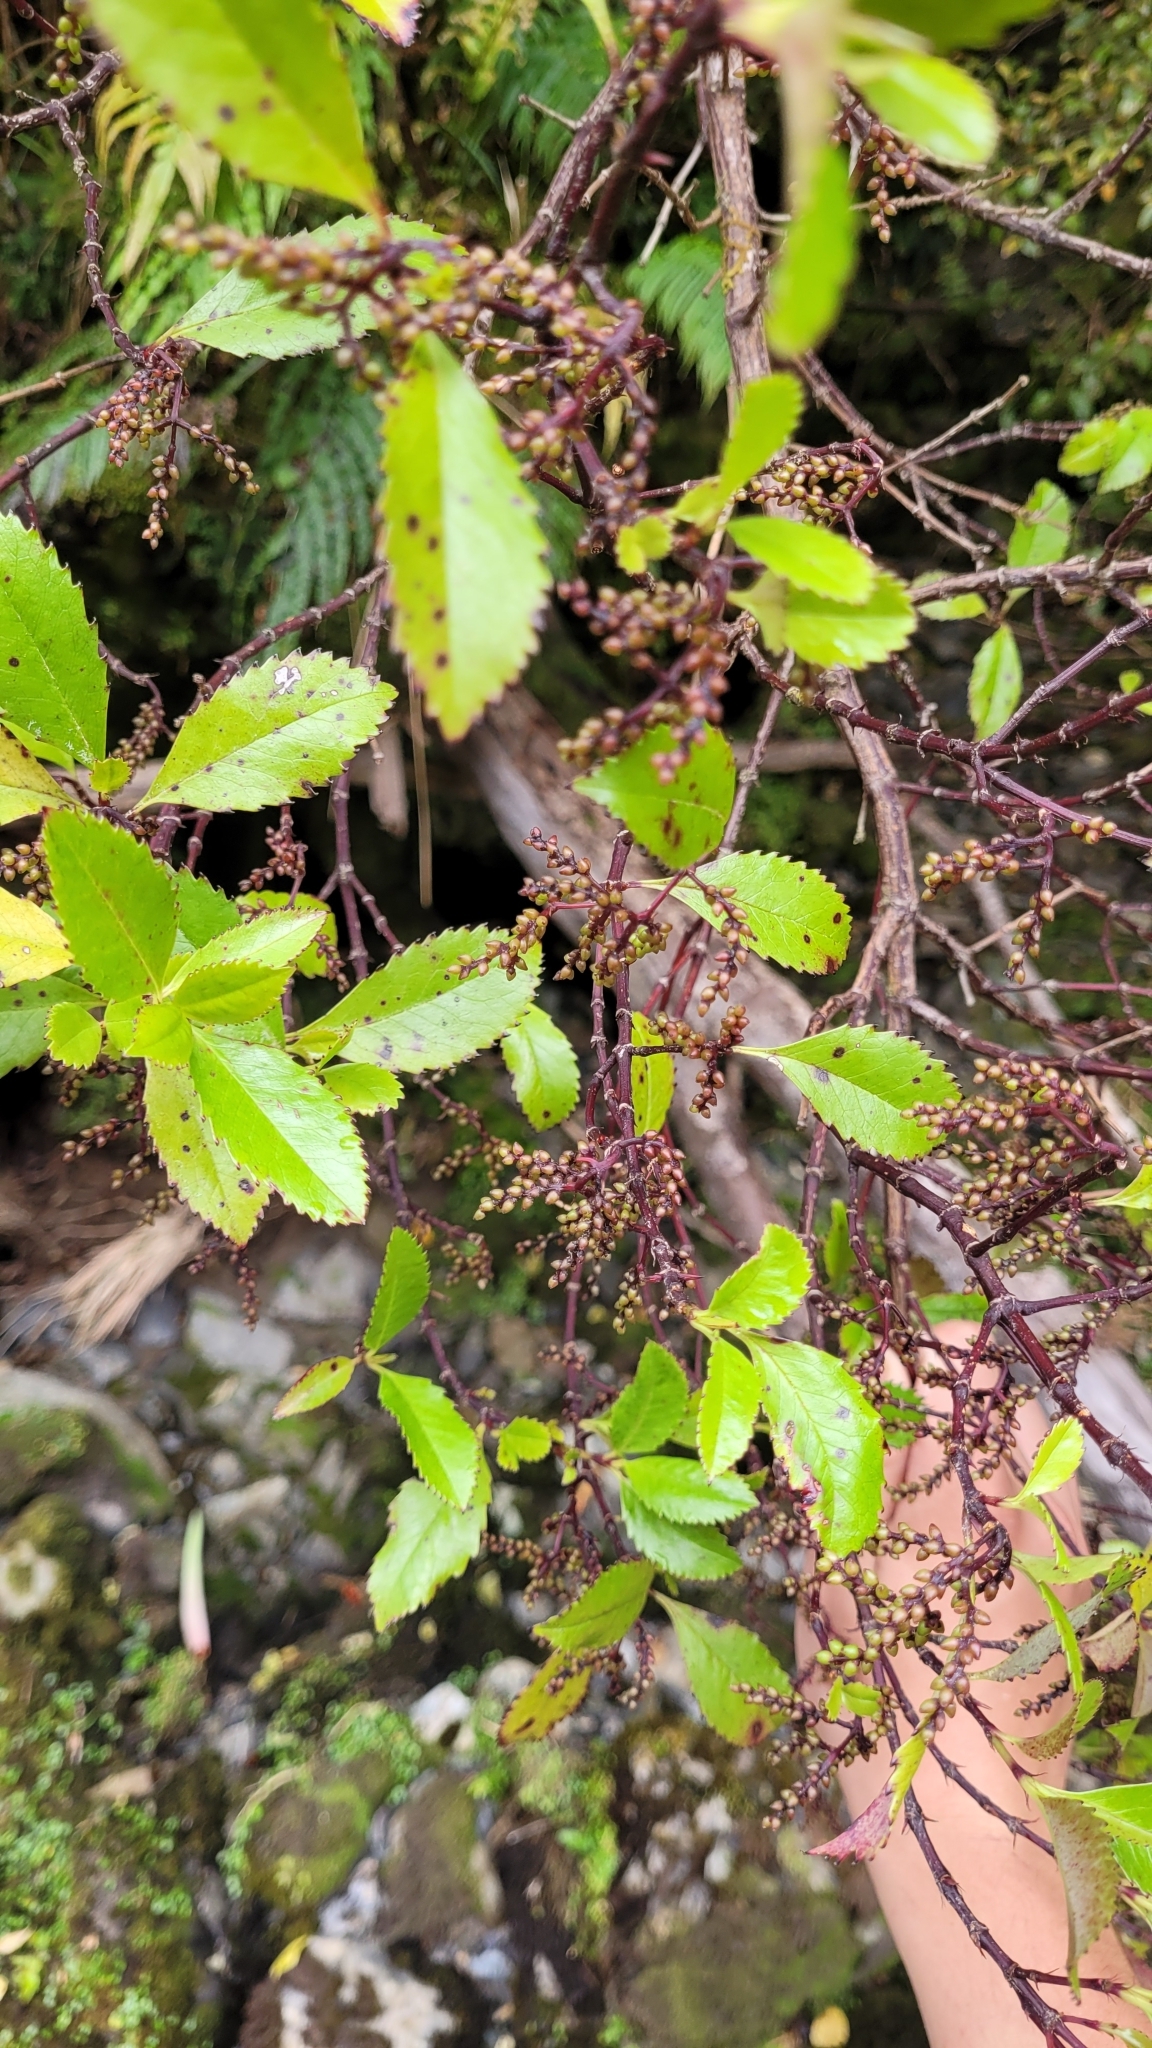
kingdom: Plantae
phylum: Tracheophyta
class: Magnoliopsida
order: Chloranthales
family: Chloranthaceae
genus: Ascarina
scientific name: Ascarina lucida
